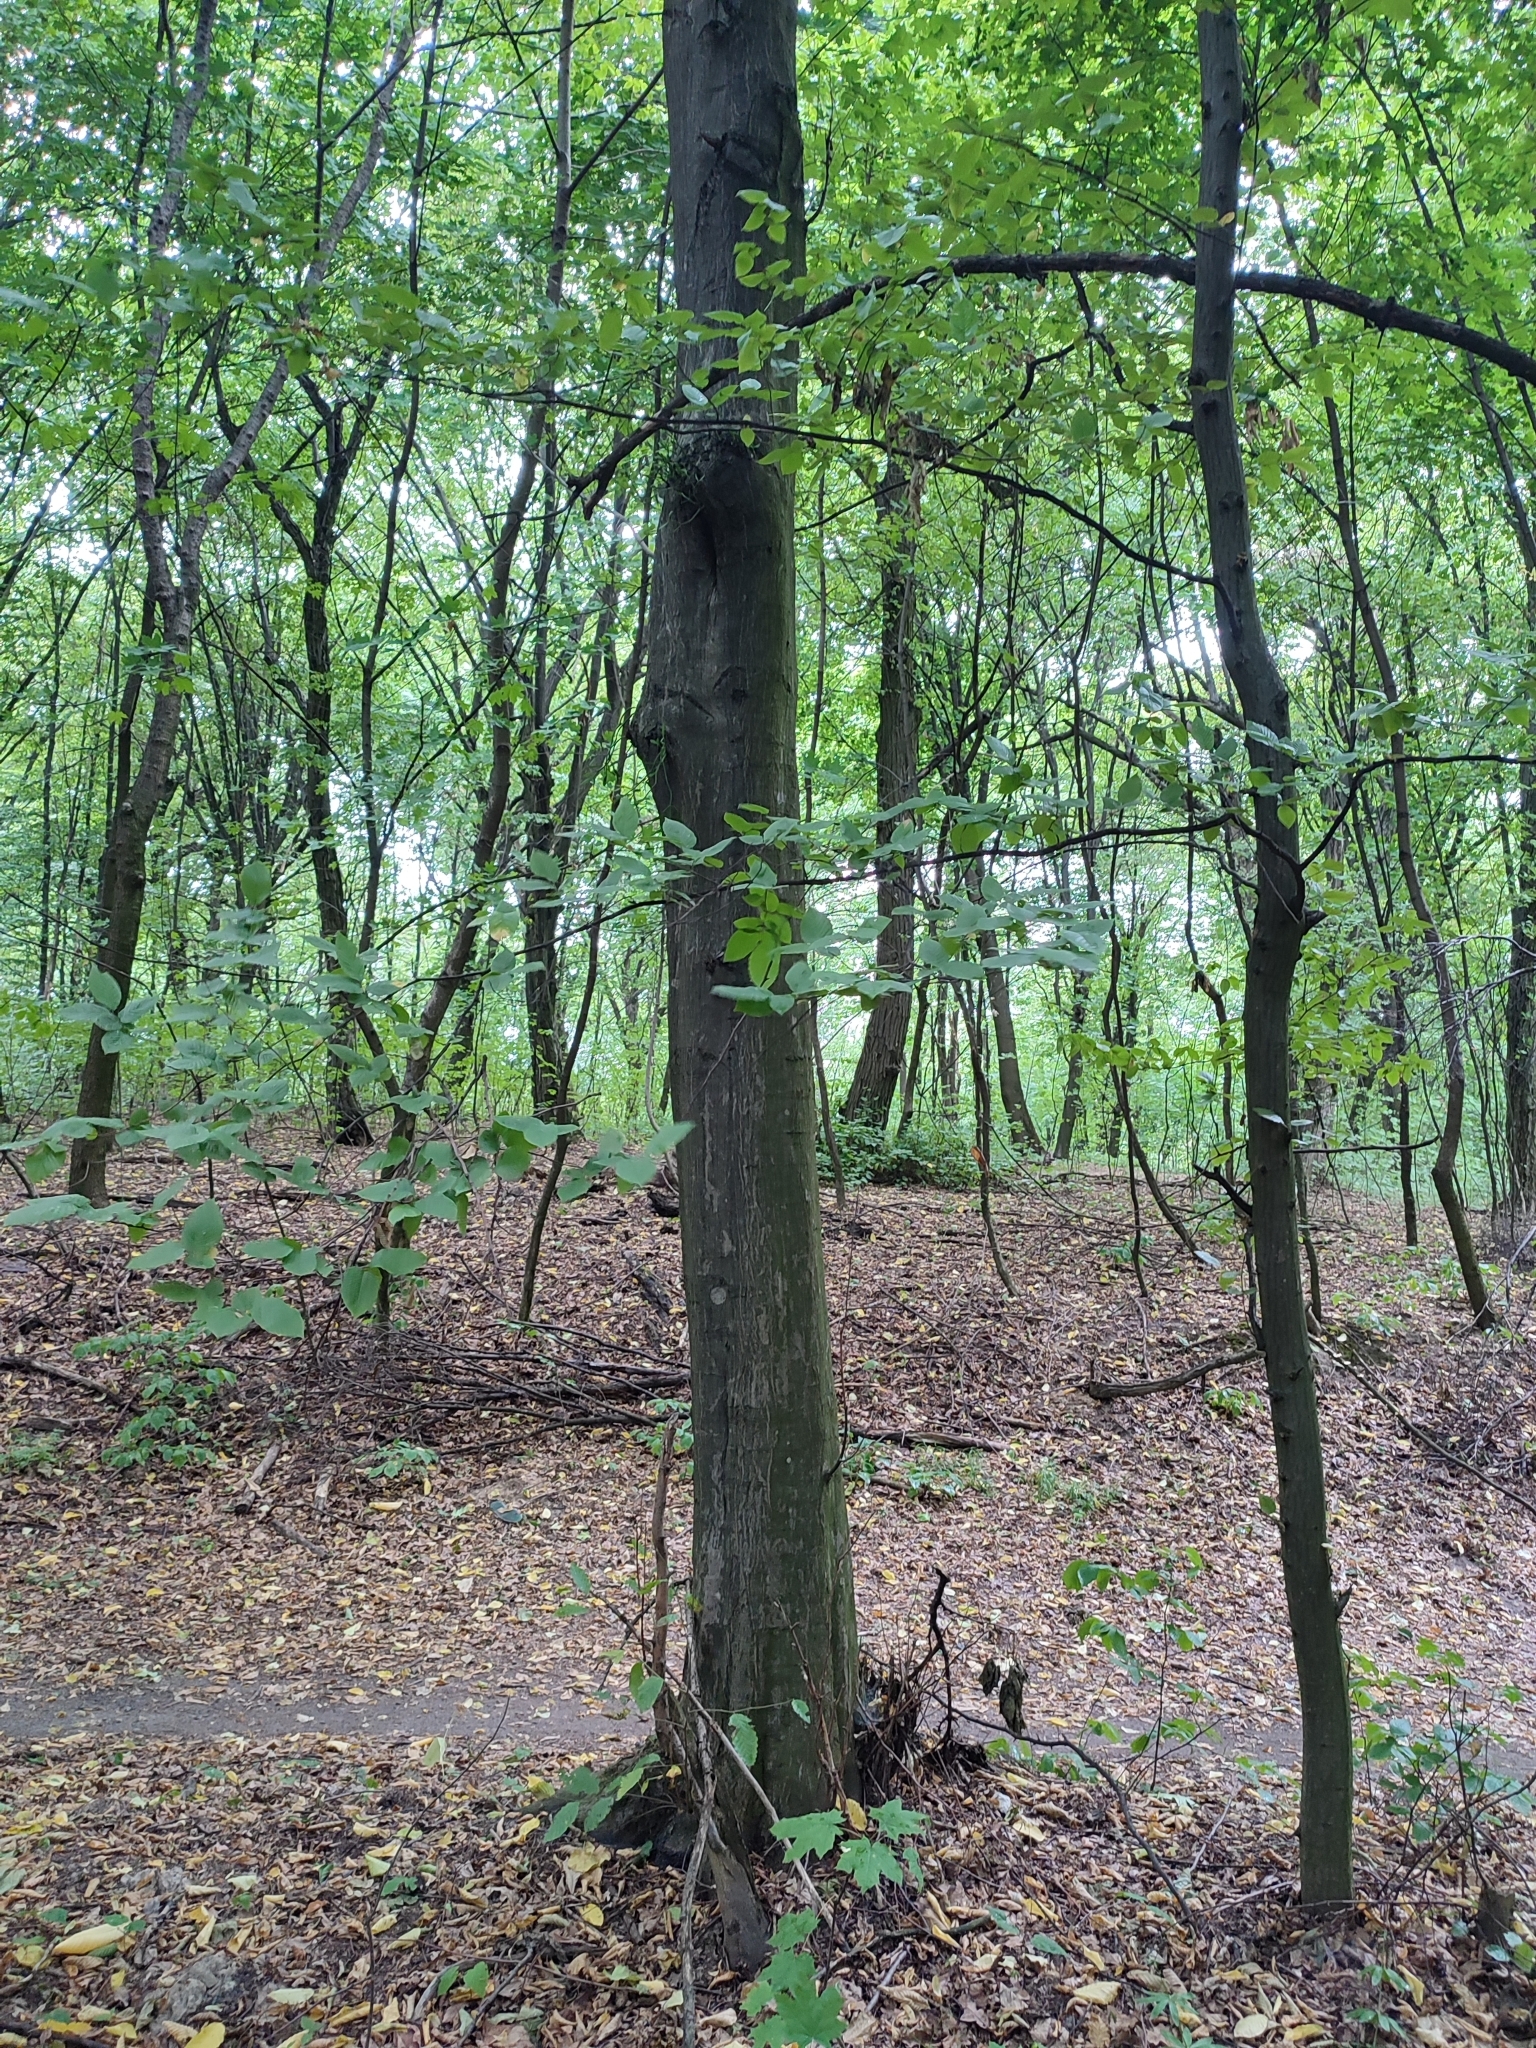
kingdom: Plantae
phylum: Tracheophyta
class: Magnoliopsida
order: Fagales
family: Betulaceae
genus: Carpinus
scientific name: Carpinus betulus
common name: Hornbeam
